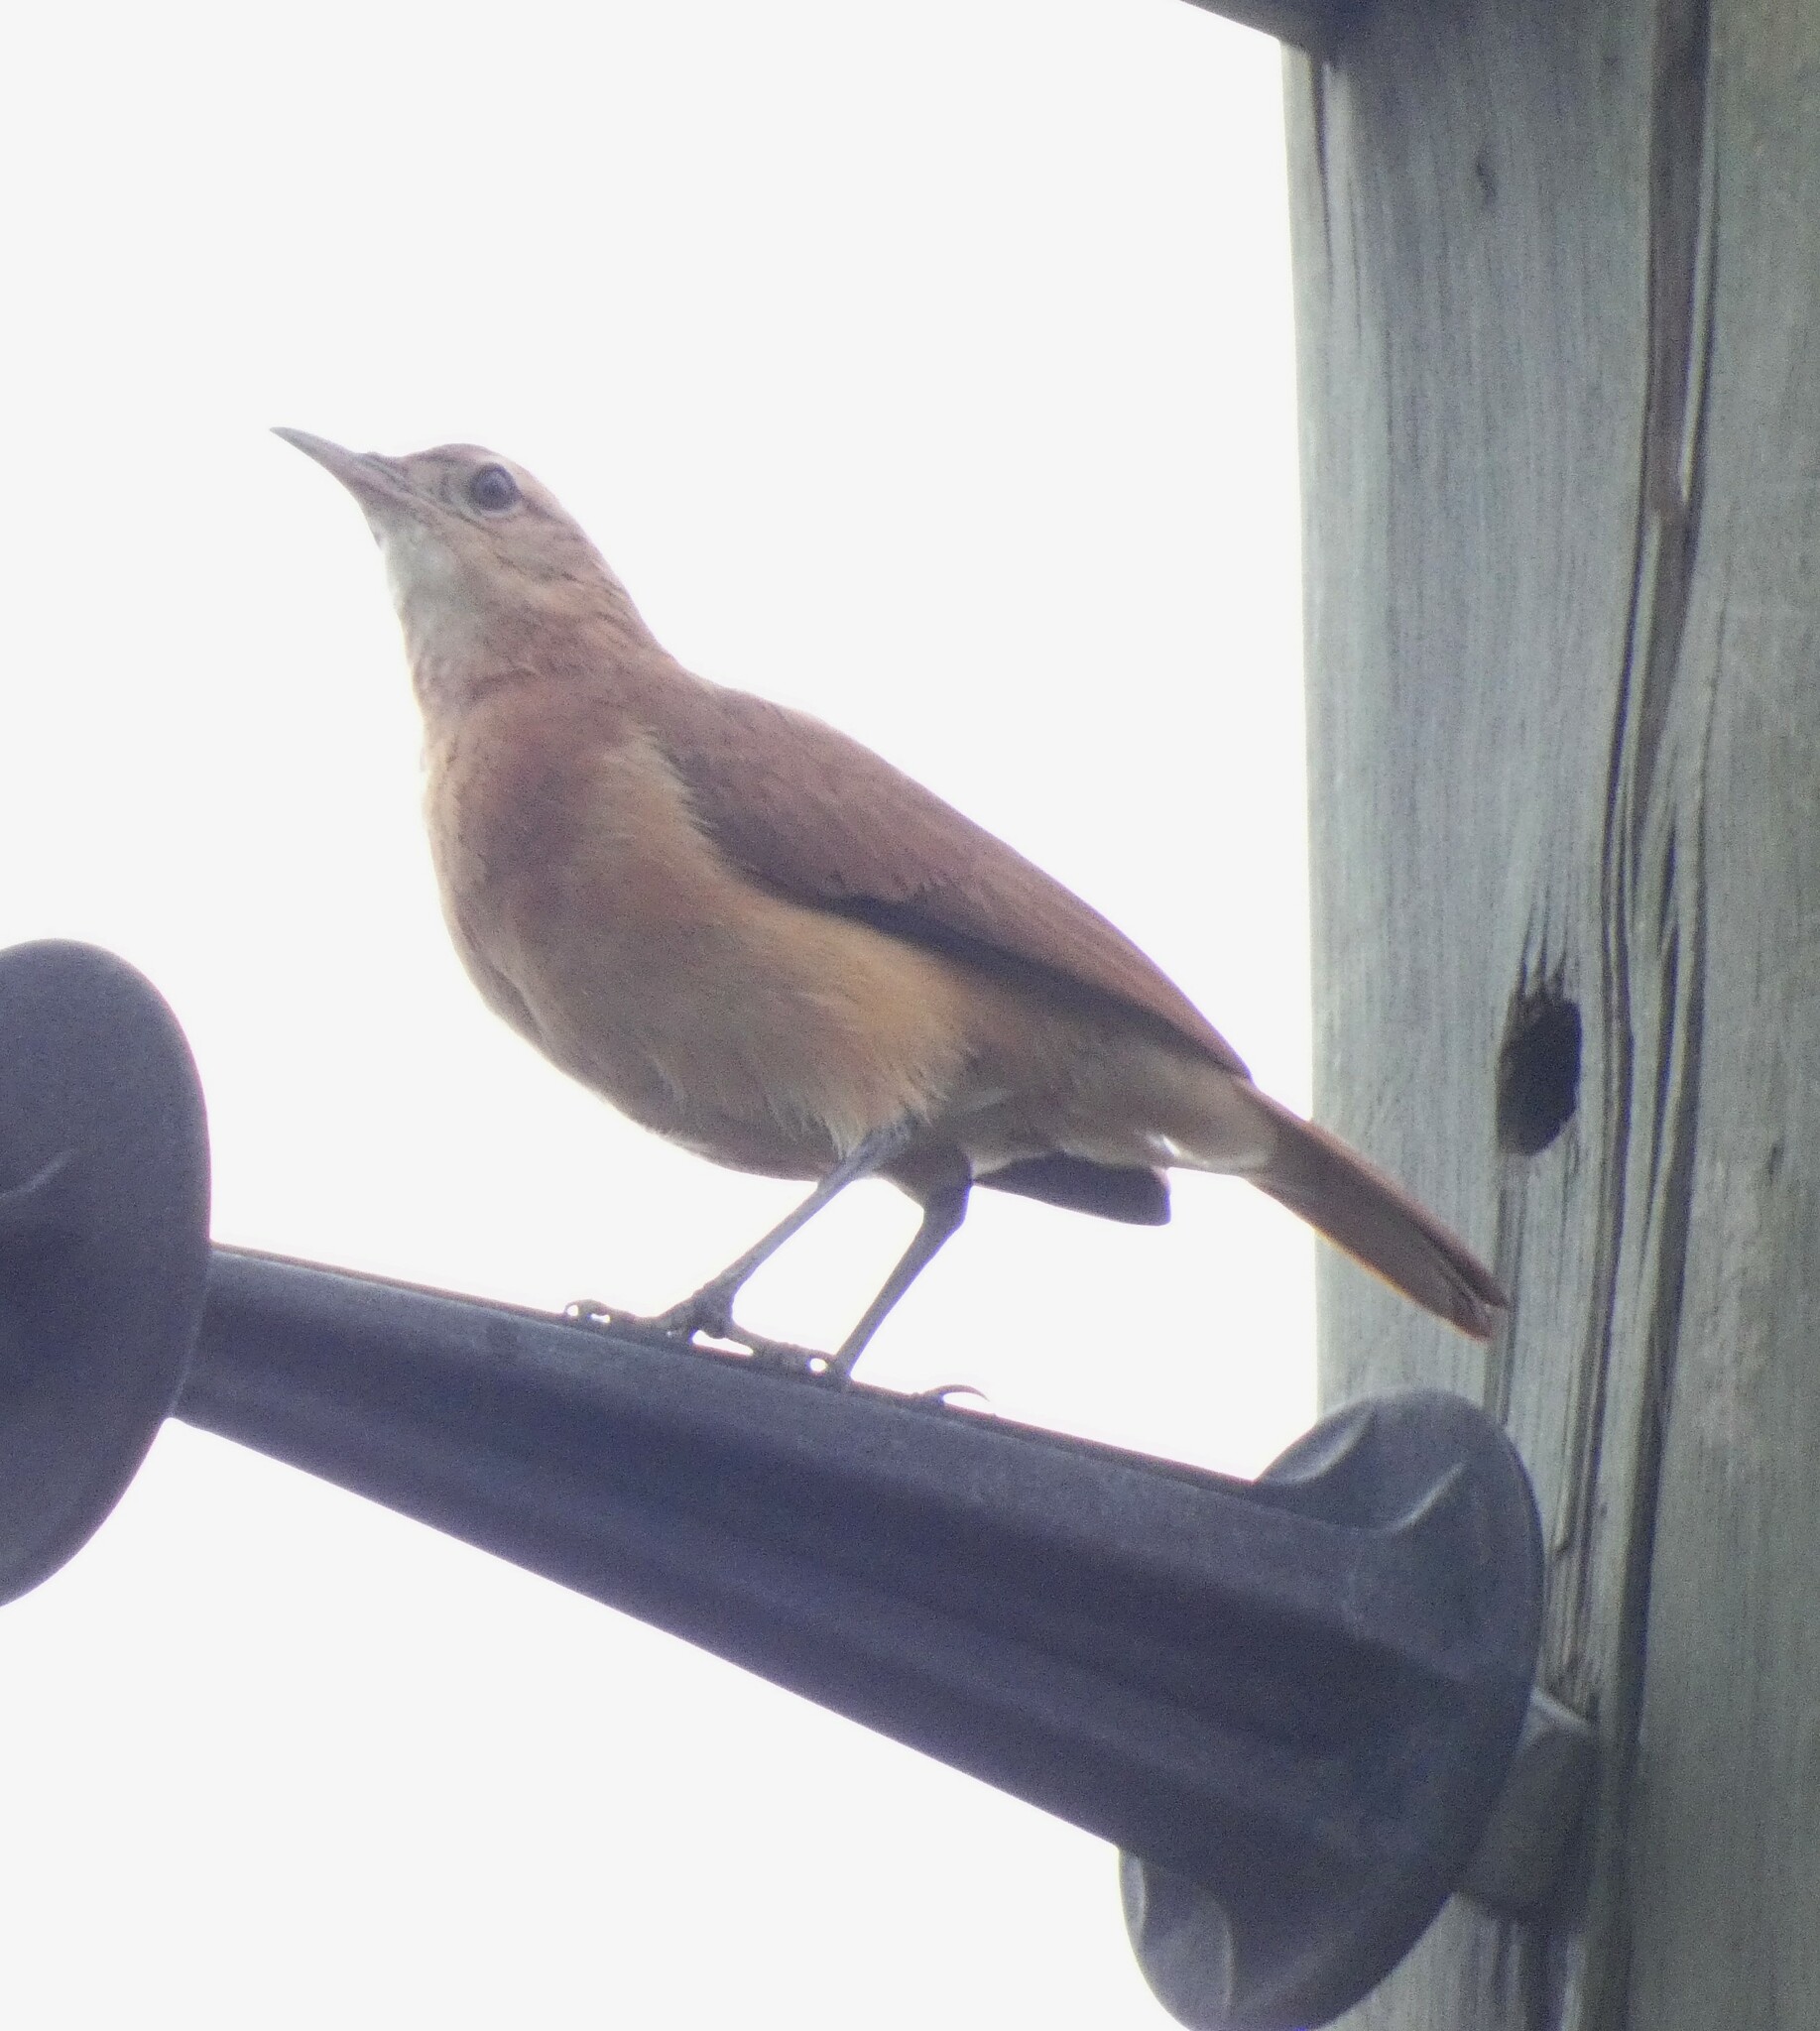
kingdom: Animalia
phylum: Chordata
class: Aves
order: Passeriformes
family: Furnariidae
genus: Furnarius
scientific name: Furnarius rufus
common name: Rufous hornero
